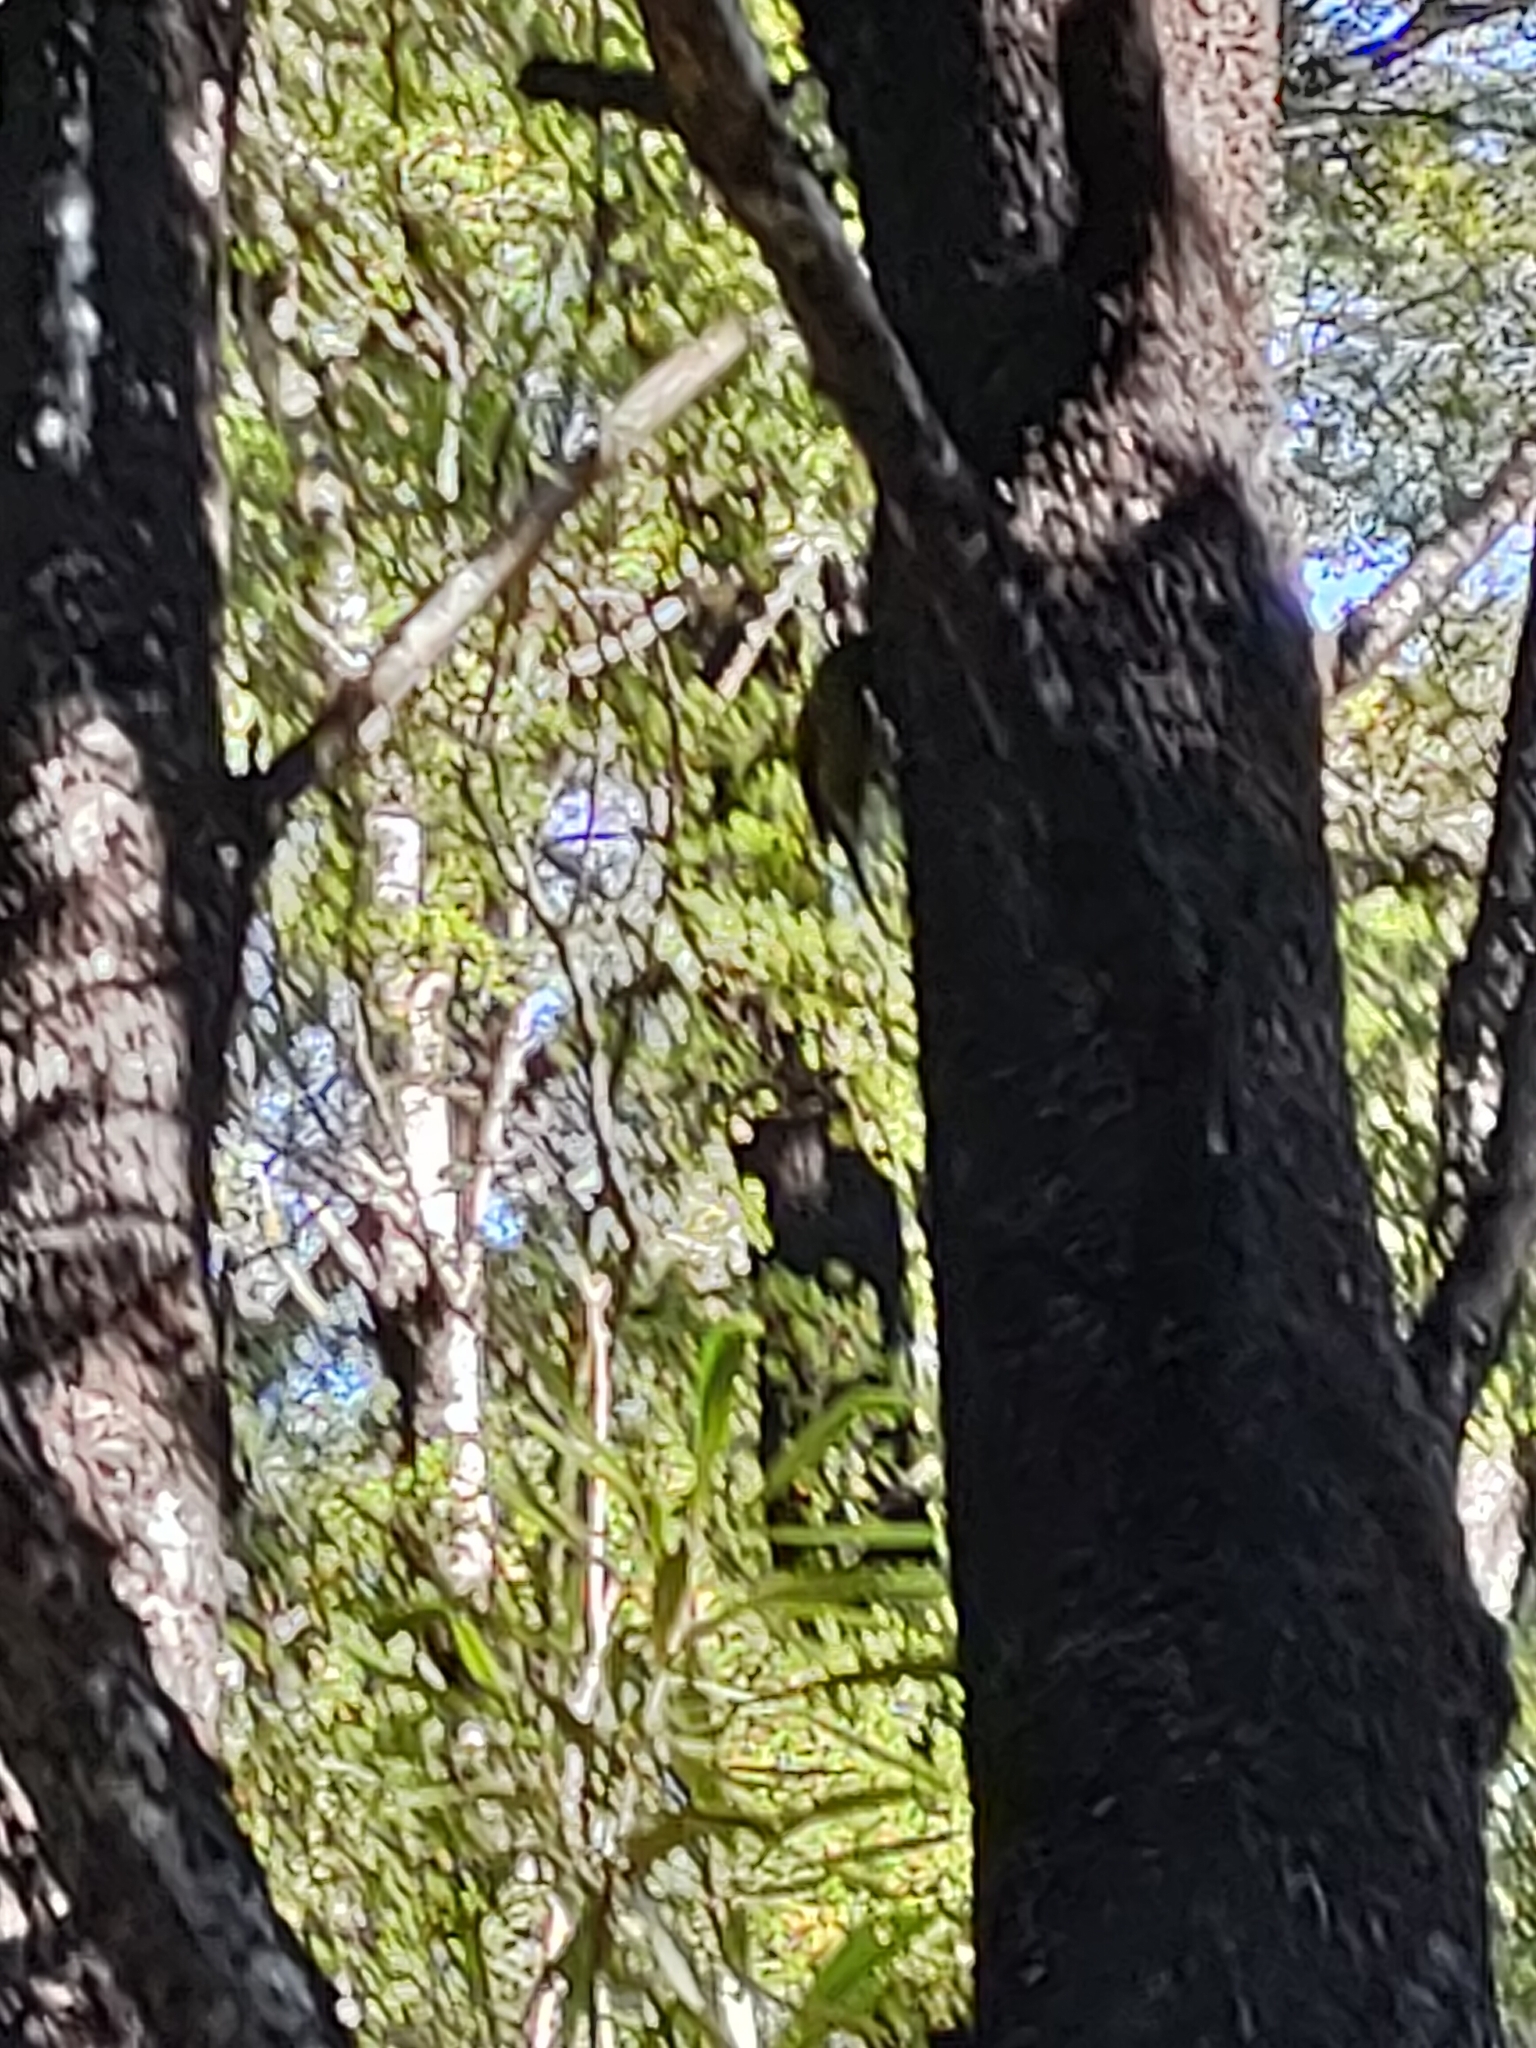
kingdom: Animalia
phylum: Chordata
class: Aves
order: Passeriformes
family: Meliphagidae
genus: Anthornis
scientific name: Anthornis melanura
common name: New zealand bellbird
